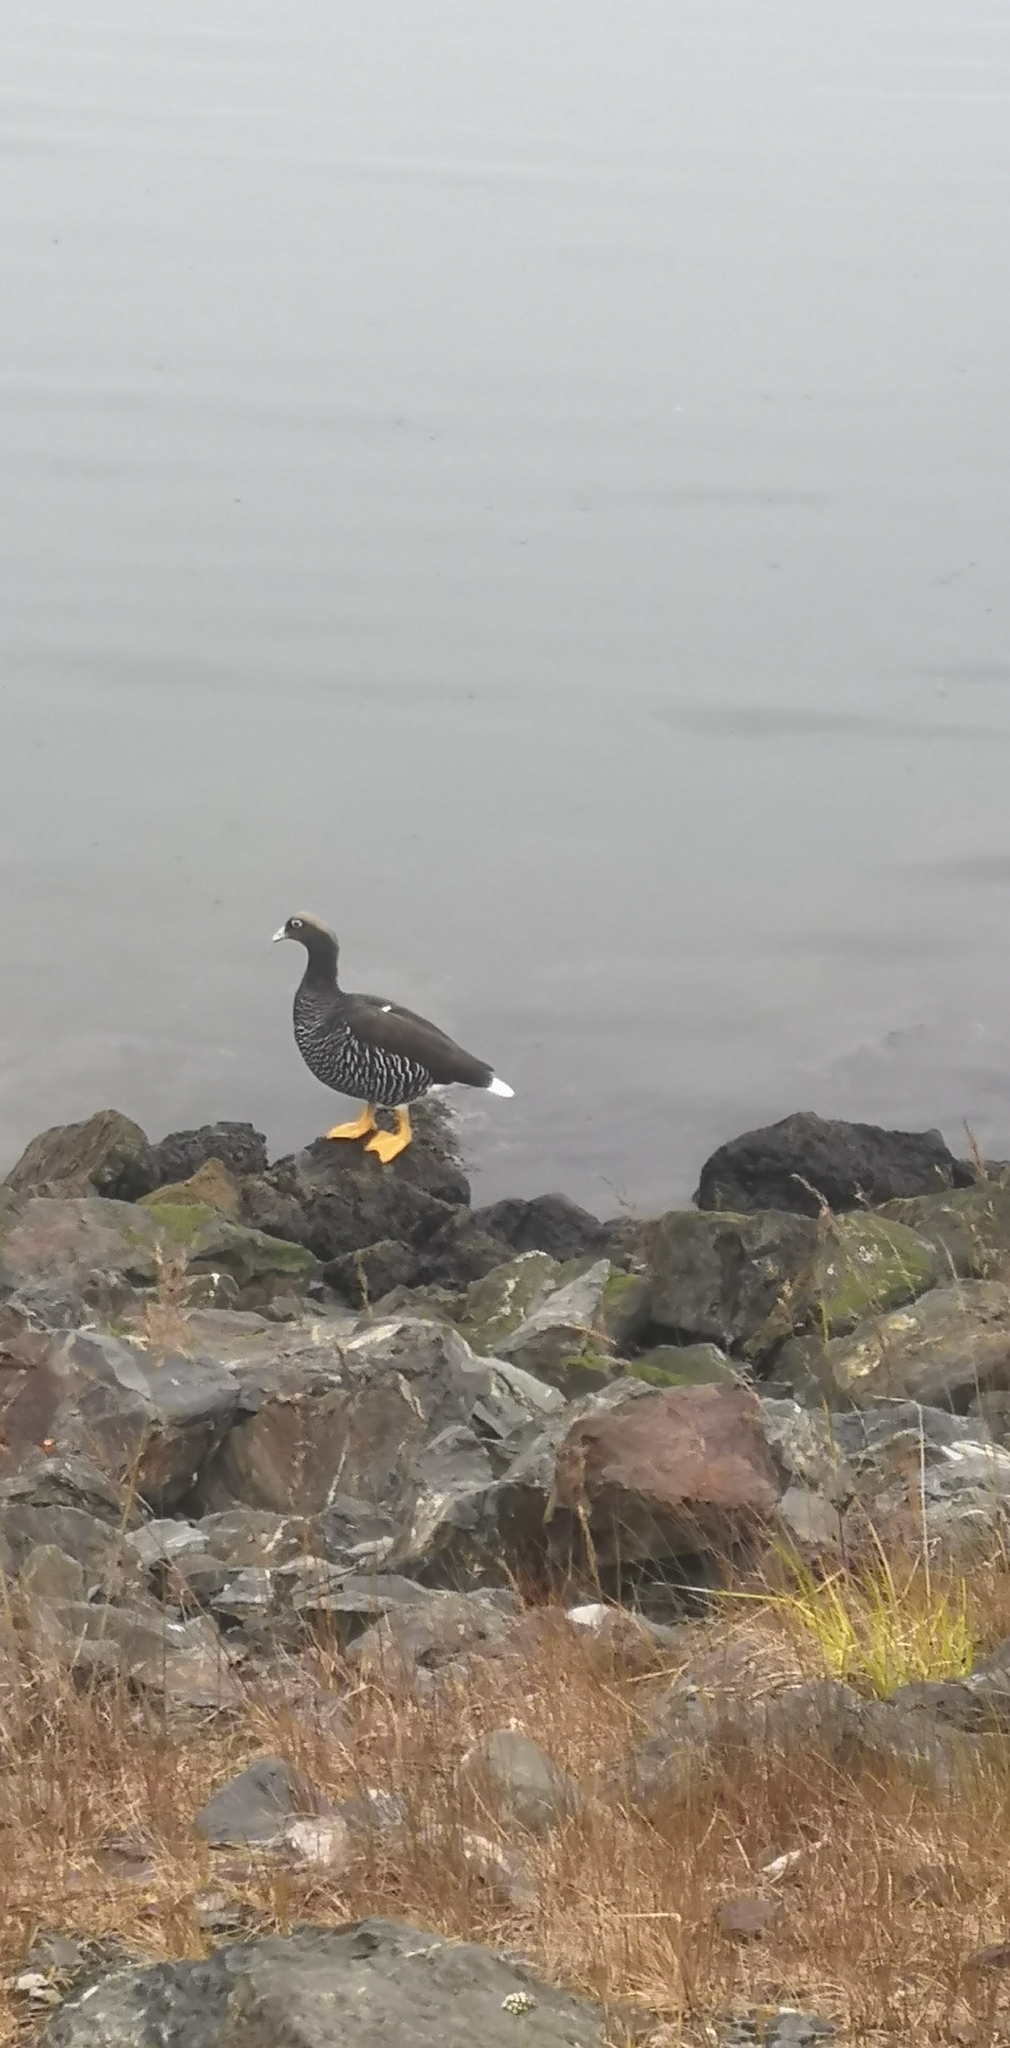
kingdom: Animalia
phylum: Chordata
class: Aves
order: Anseriformes
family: Anatidae
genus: Chloephaga
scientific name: Chloephaga hybrida
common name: Kelp goose
